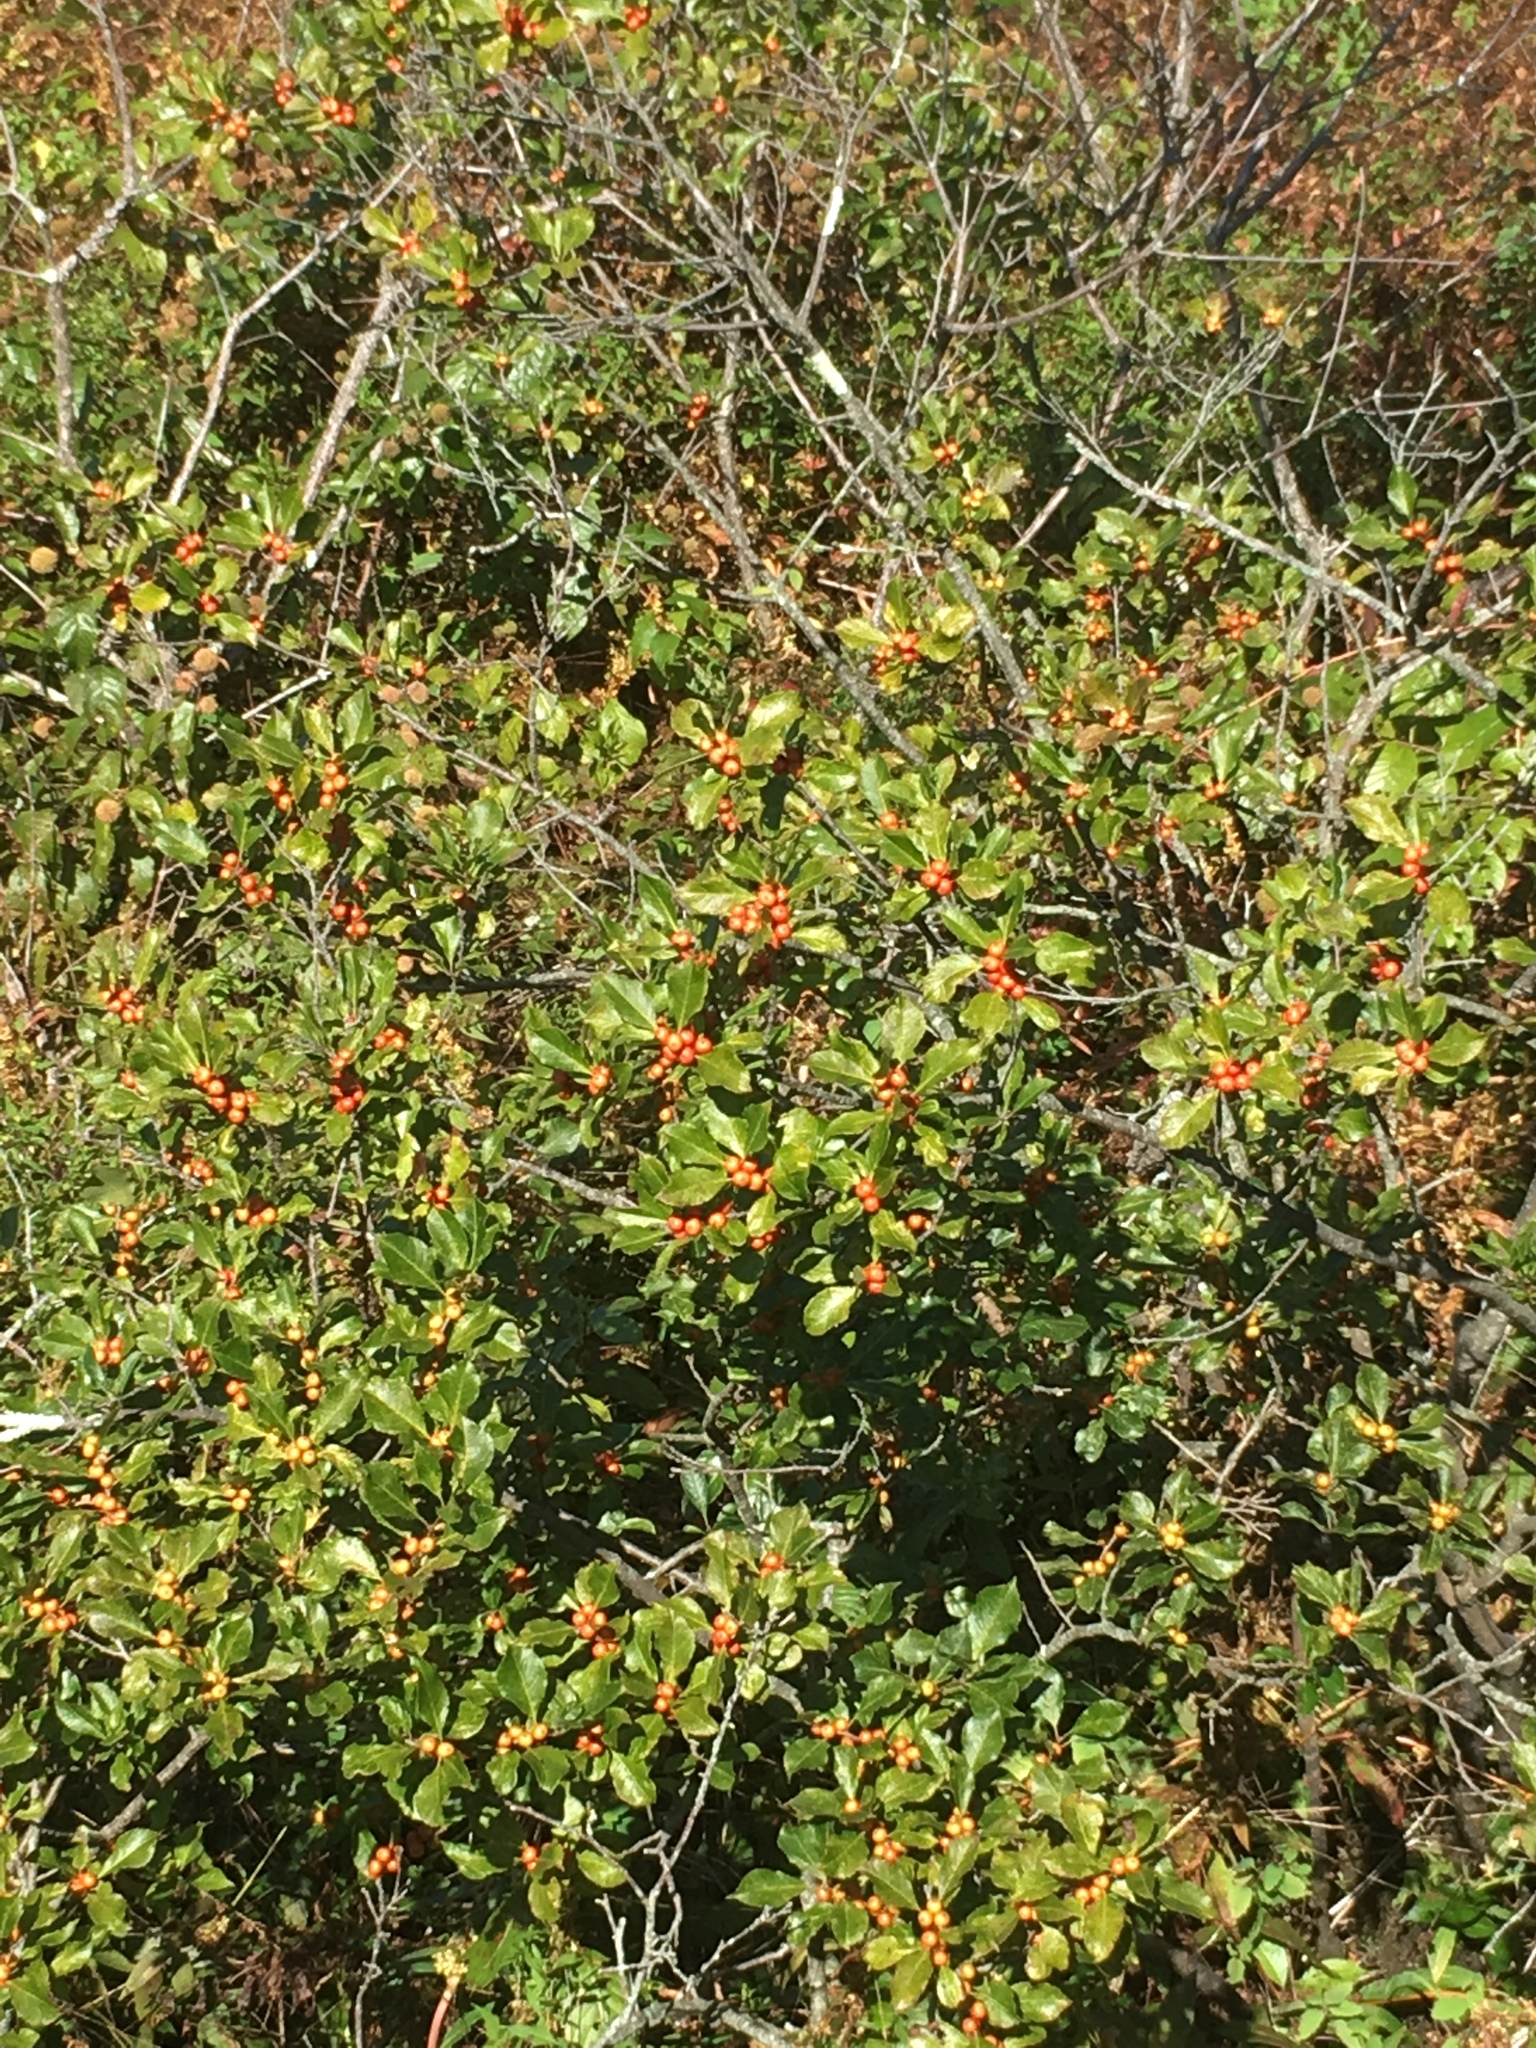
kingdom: Plantae
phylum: Tracheophyta
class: Magnoliopsida
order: Aquifoliales
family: Aquifoliaceae
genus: Ilex
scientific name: Ilex verticillata
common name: Virginia winterberry
